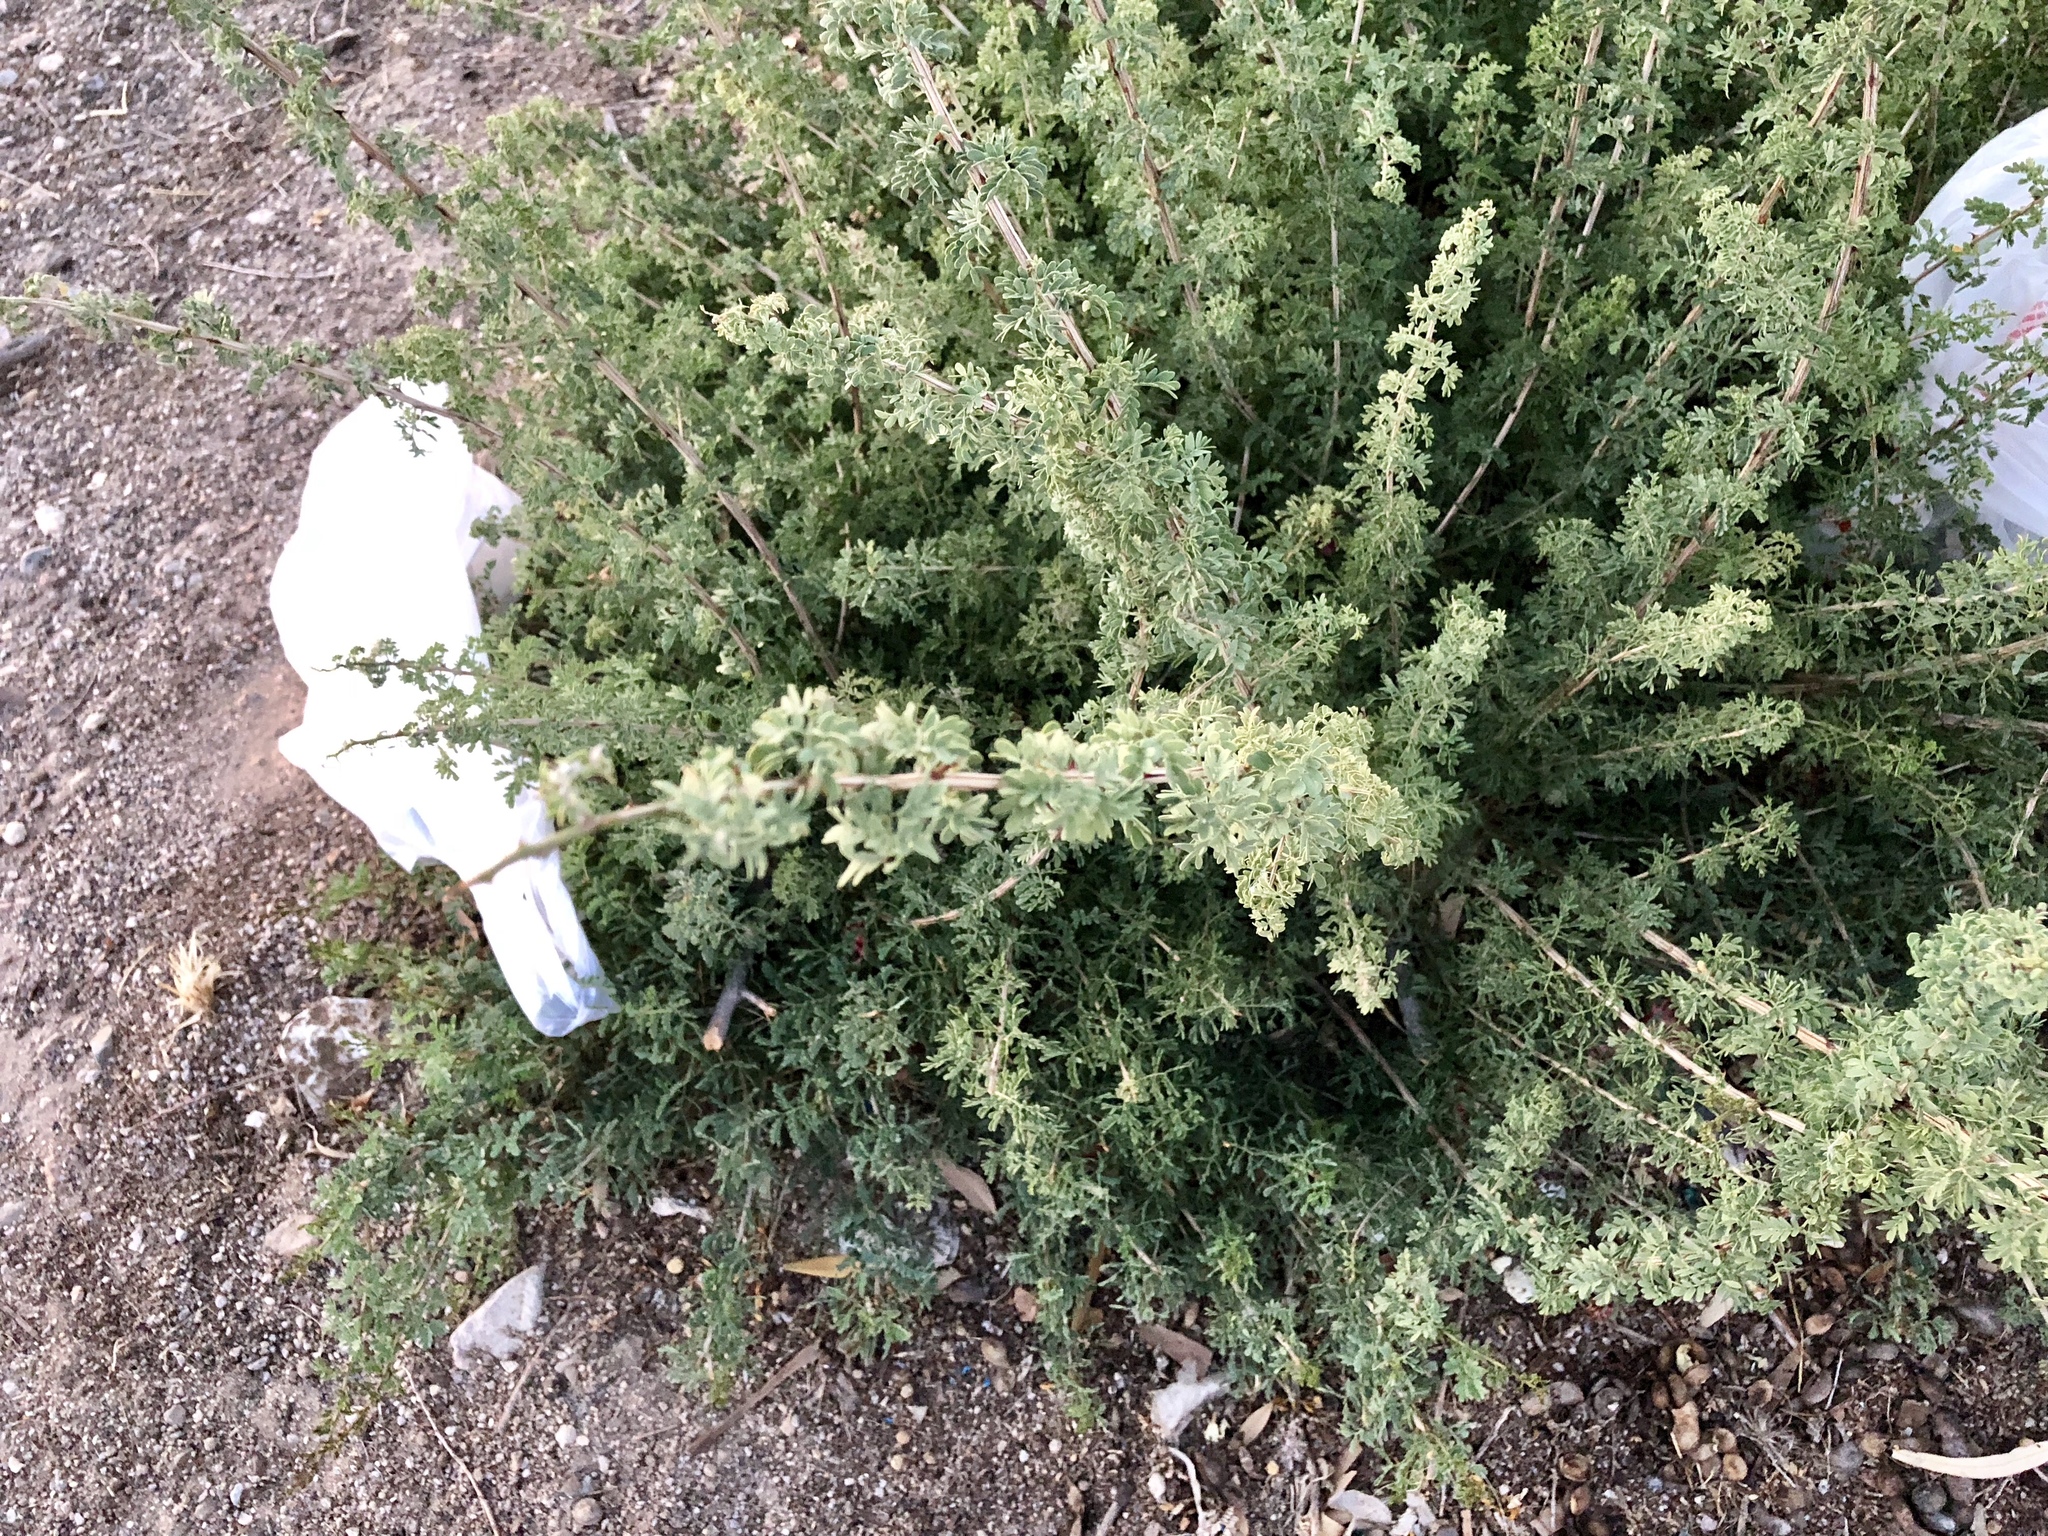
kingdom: Plantae
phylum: Tracheophyta
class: Magnoliopsida
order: Fabales
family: Fabaceae
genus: Senegalia
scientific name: Senegalia greggii
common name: Texas-mimosa
